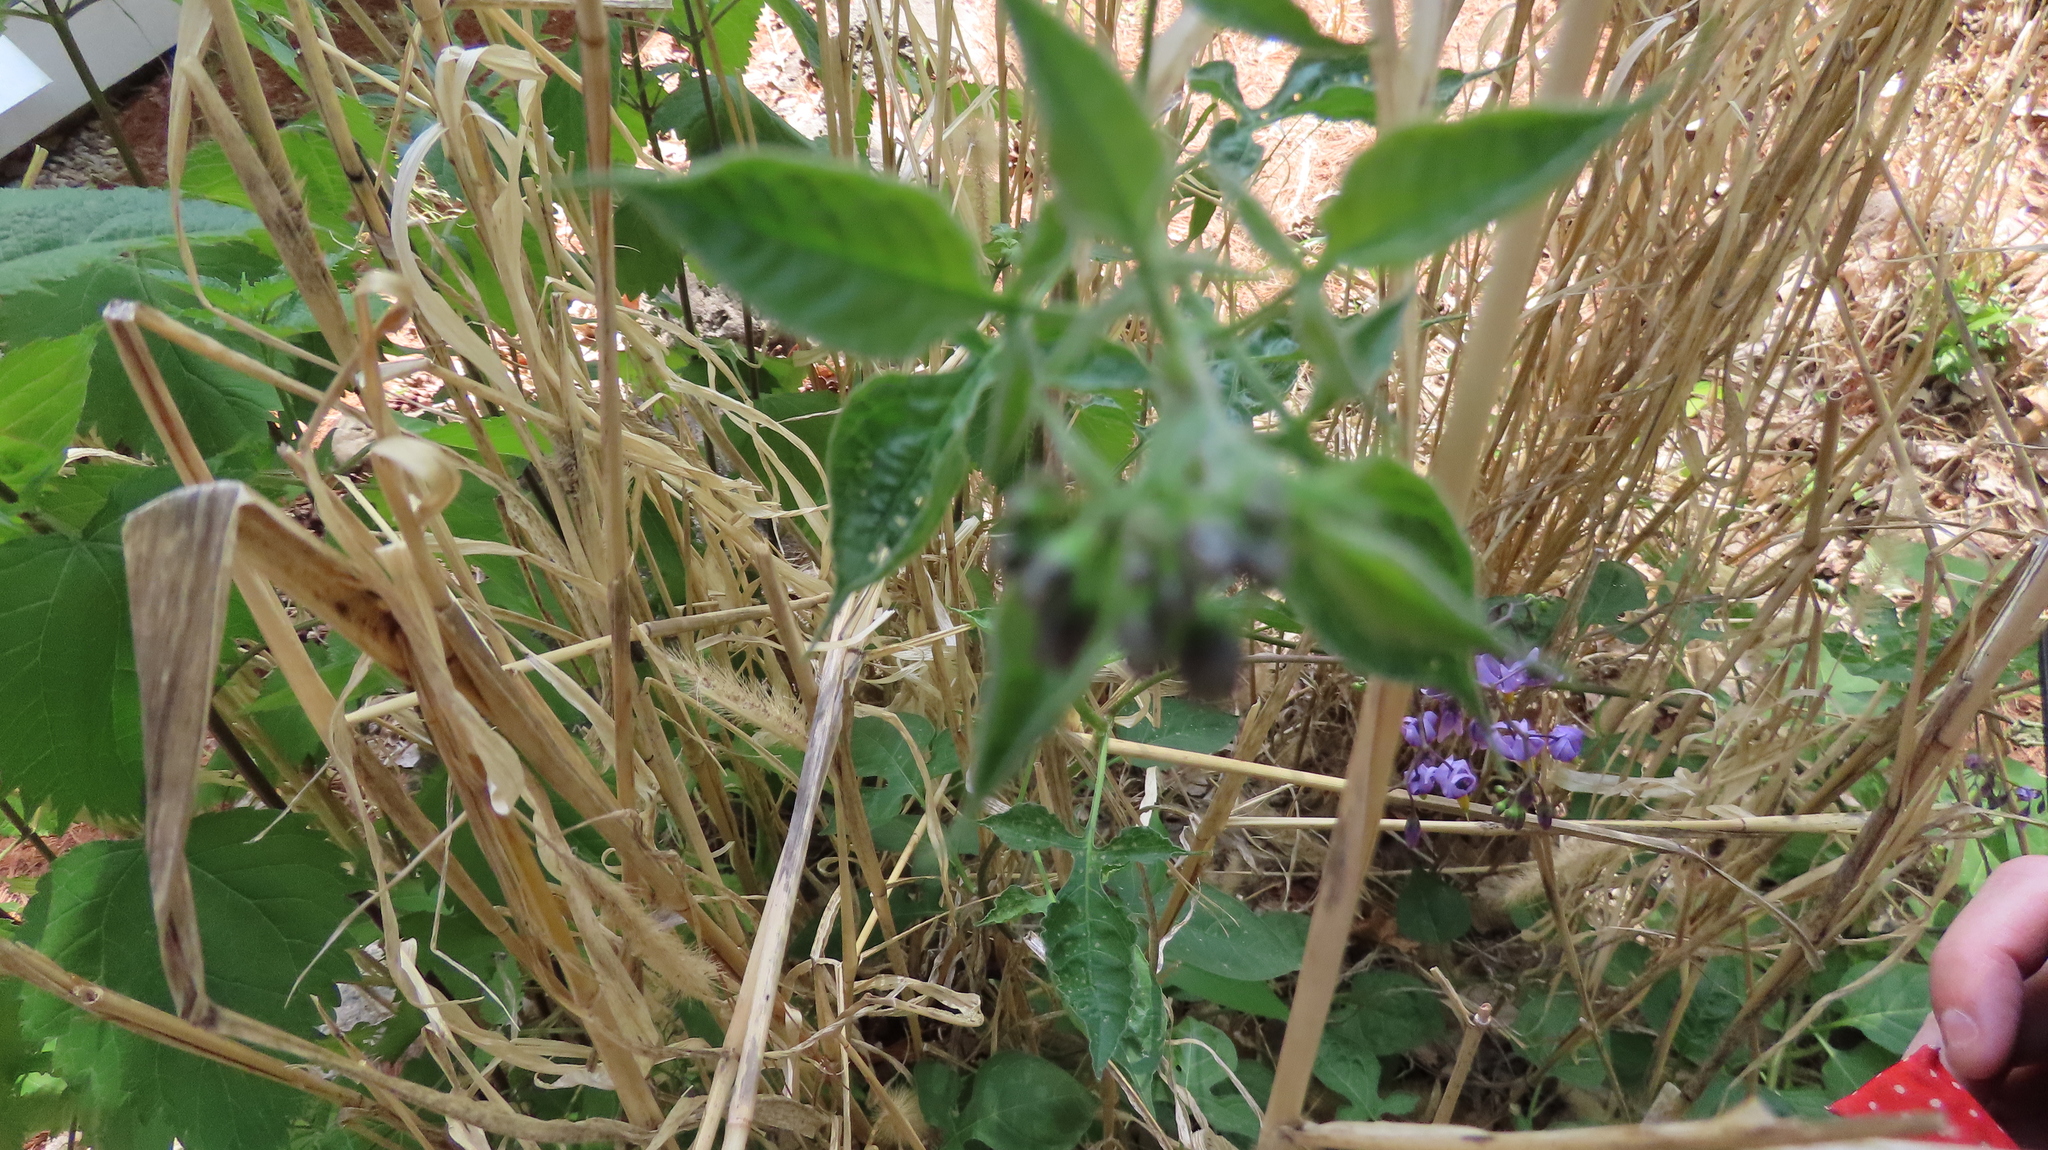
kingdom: Plantae
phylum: Tracheophyta
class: Magnoliopsida
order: Solanales
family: Solanaceae
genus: Solanum
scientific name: Solanum dulcamara
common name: Climbing nightshade
